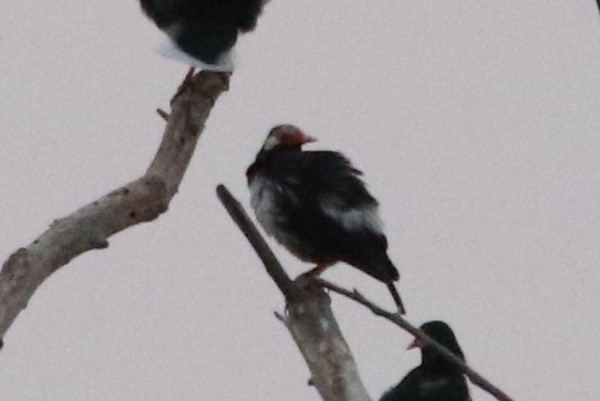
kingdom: Animalia
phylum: Chordata
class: Aves
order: Passeriformes
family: Sturnidae
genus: Gracupica
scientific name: Gracupica contra
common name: Pied myna
